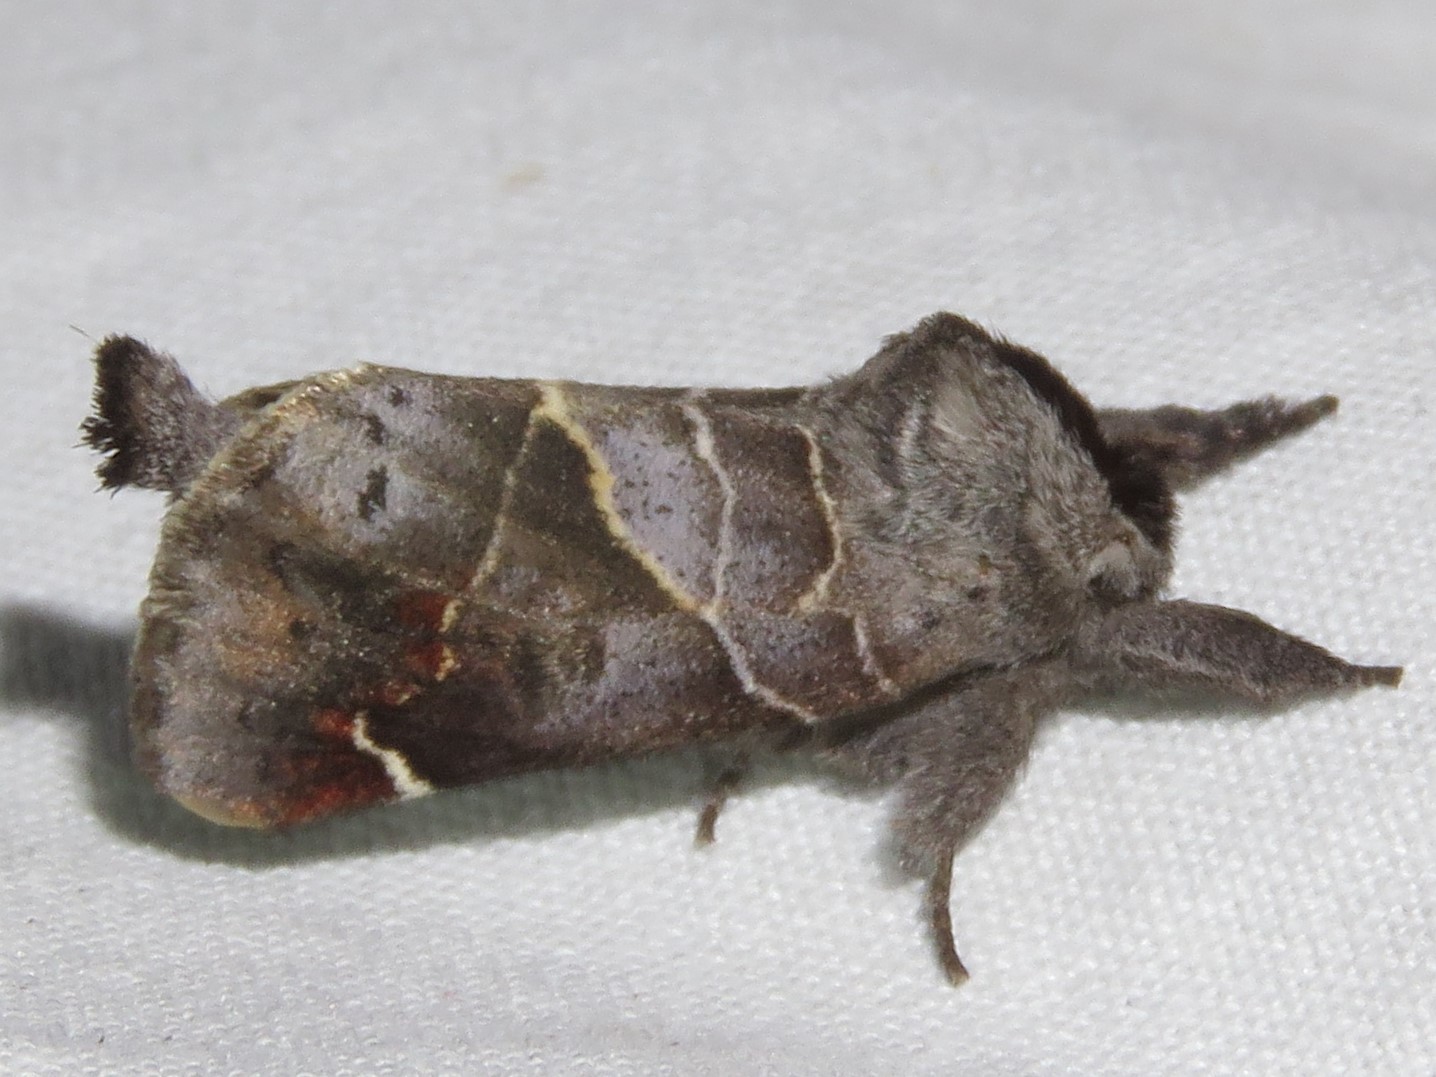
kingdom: Animalia
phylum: Arthropoda
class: Insecta
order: Lepidoptera
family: Notodontidae
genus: Clostera
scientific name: Clostera apicalis
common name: Apical prominent
